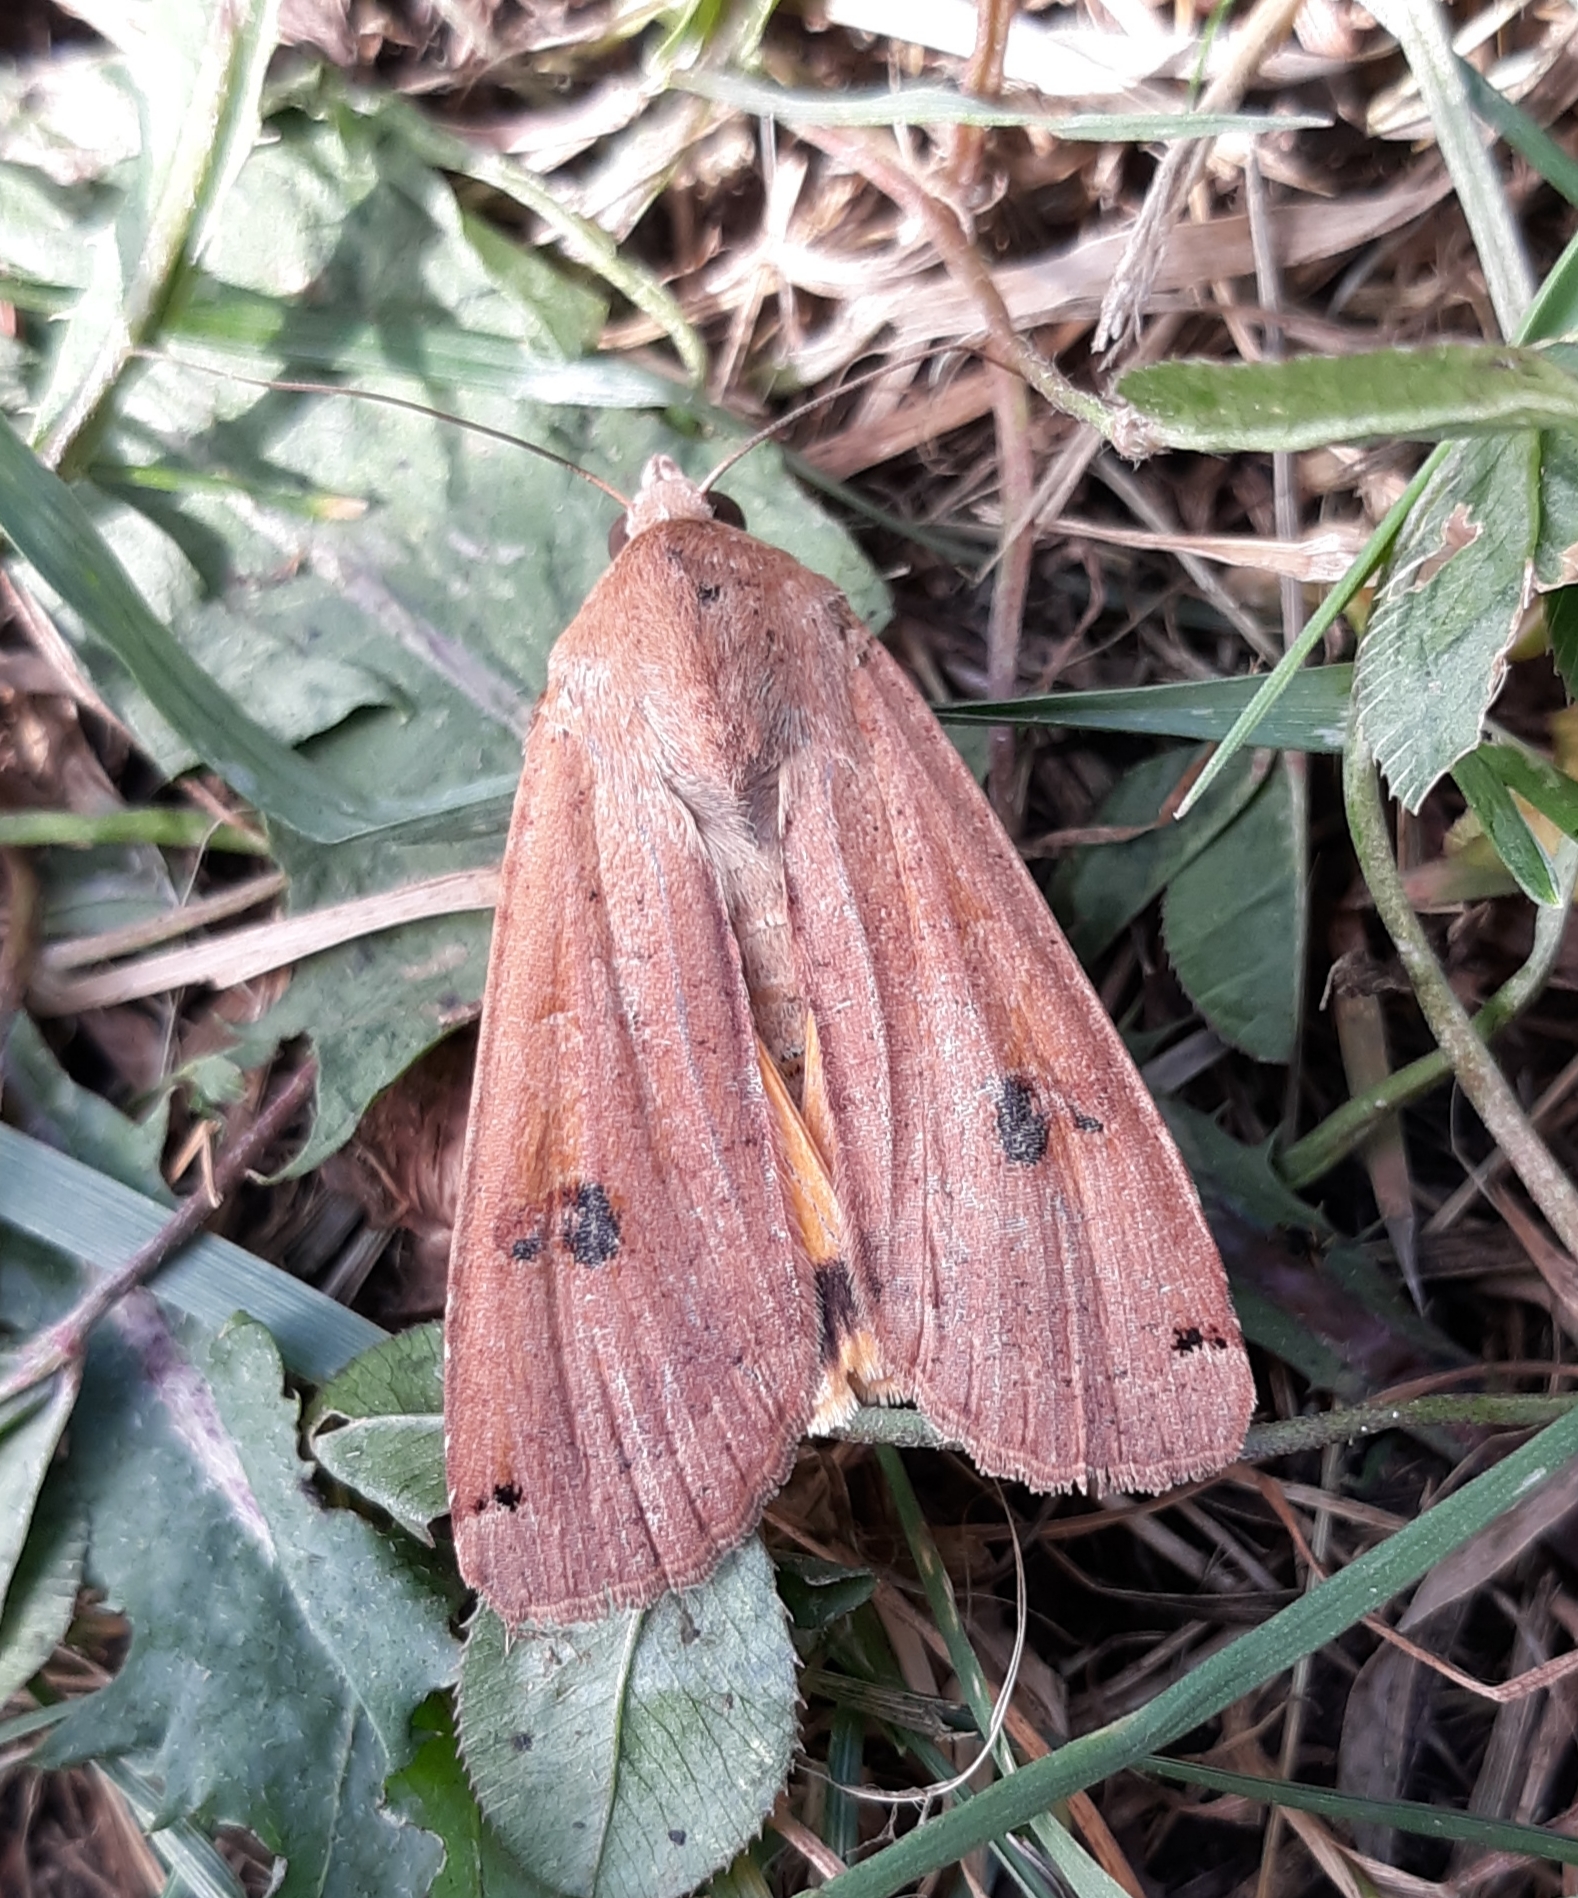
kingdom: Animalia
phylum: Arthropoda
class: Insecta
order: Lepidoptera
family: Noctuidae
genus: Noctua
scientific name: Noctua pronuba
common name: Large yellow underwing
